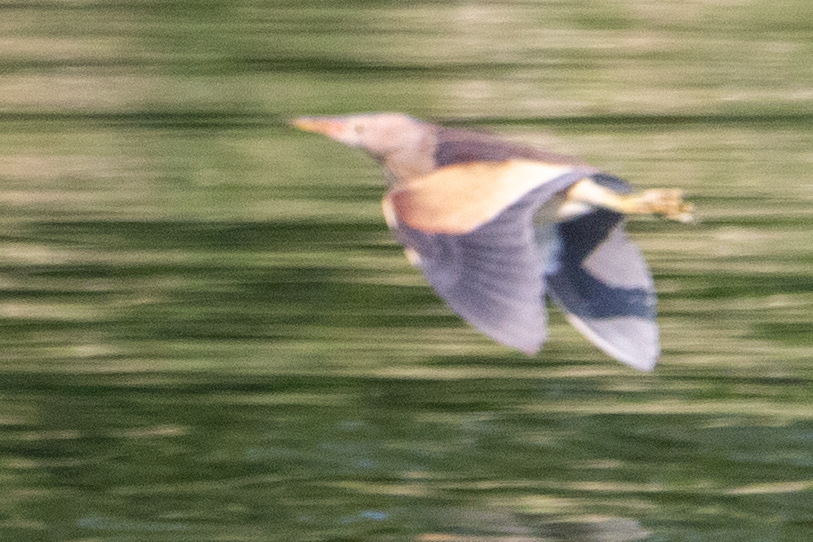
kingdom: Animalia
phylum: Chordata
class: Aves
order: Pelecaniformes
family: Ardeidae
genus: Ixobrychus
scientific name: Ixobrychus minutus
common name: Little bittern
